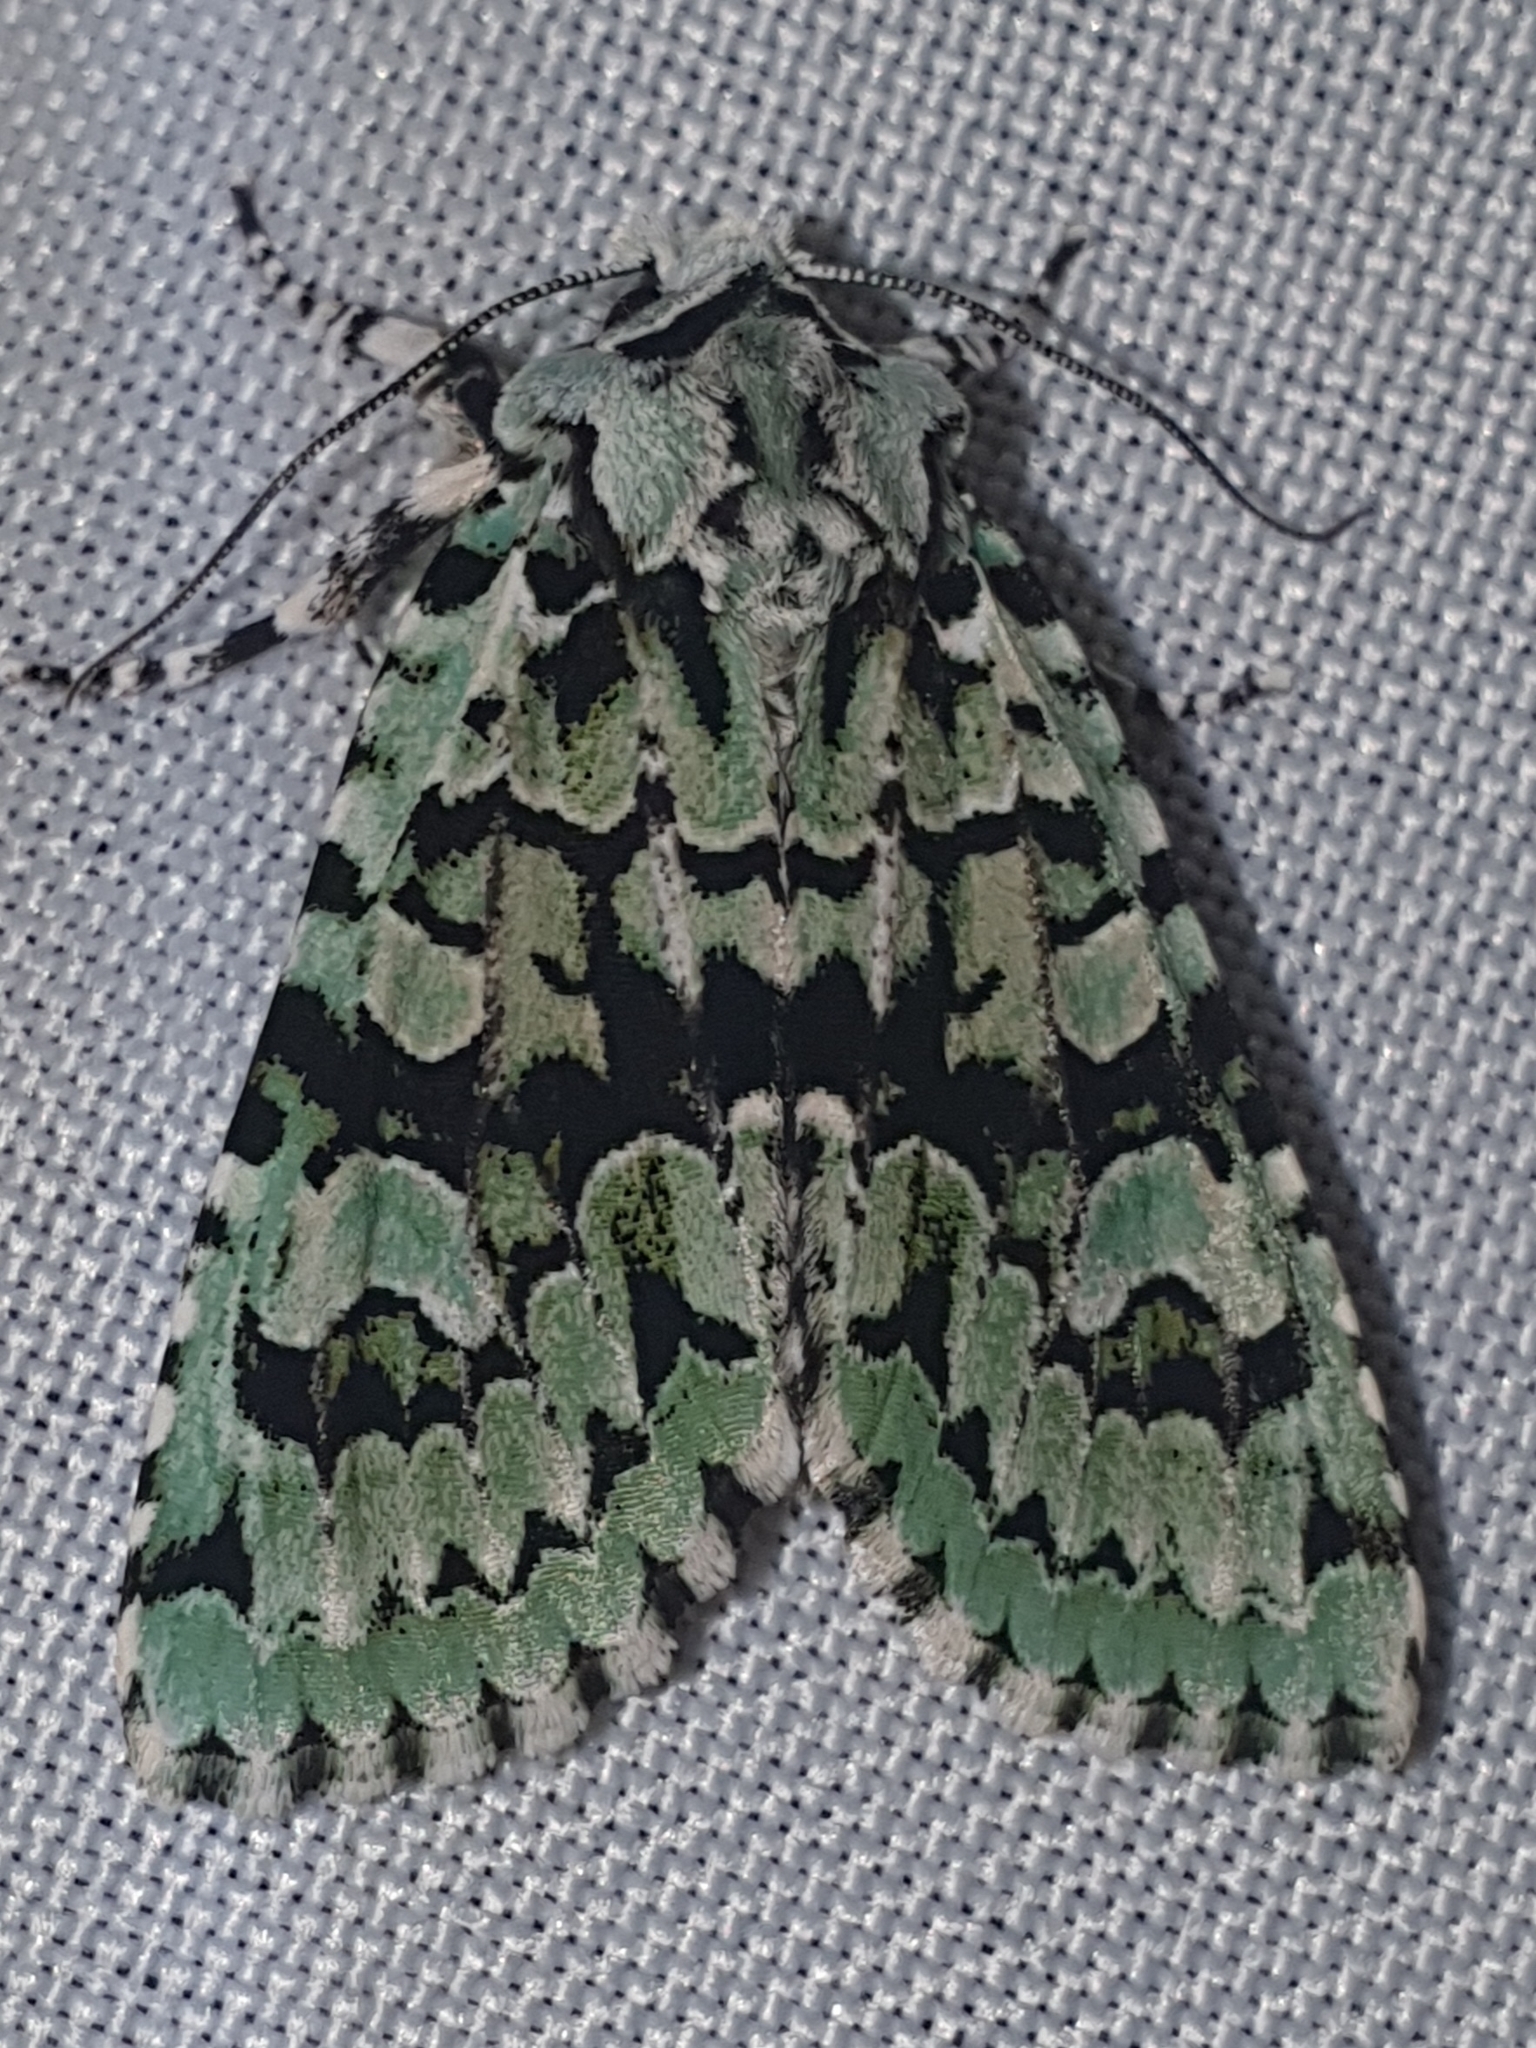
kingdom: Animalia
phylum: Arthropoda
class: Insecta
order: Lepidoptera
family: Noctuidae
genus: Griposia
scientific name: Griposia aprilina
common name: Merveille du jour
